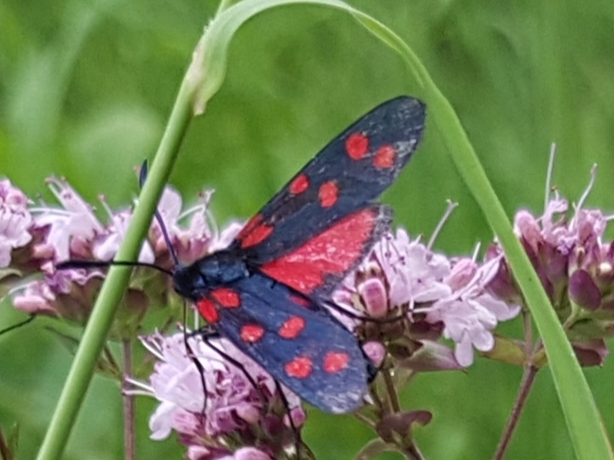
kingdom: Animalia
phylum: Arthropoda
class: Insecta
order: Lepidoptera
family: Zygaenidae
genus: Zygaena
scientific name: Zygaena transalpina
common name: Southern six spot burnet
